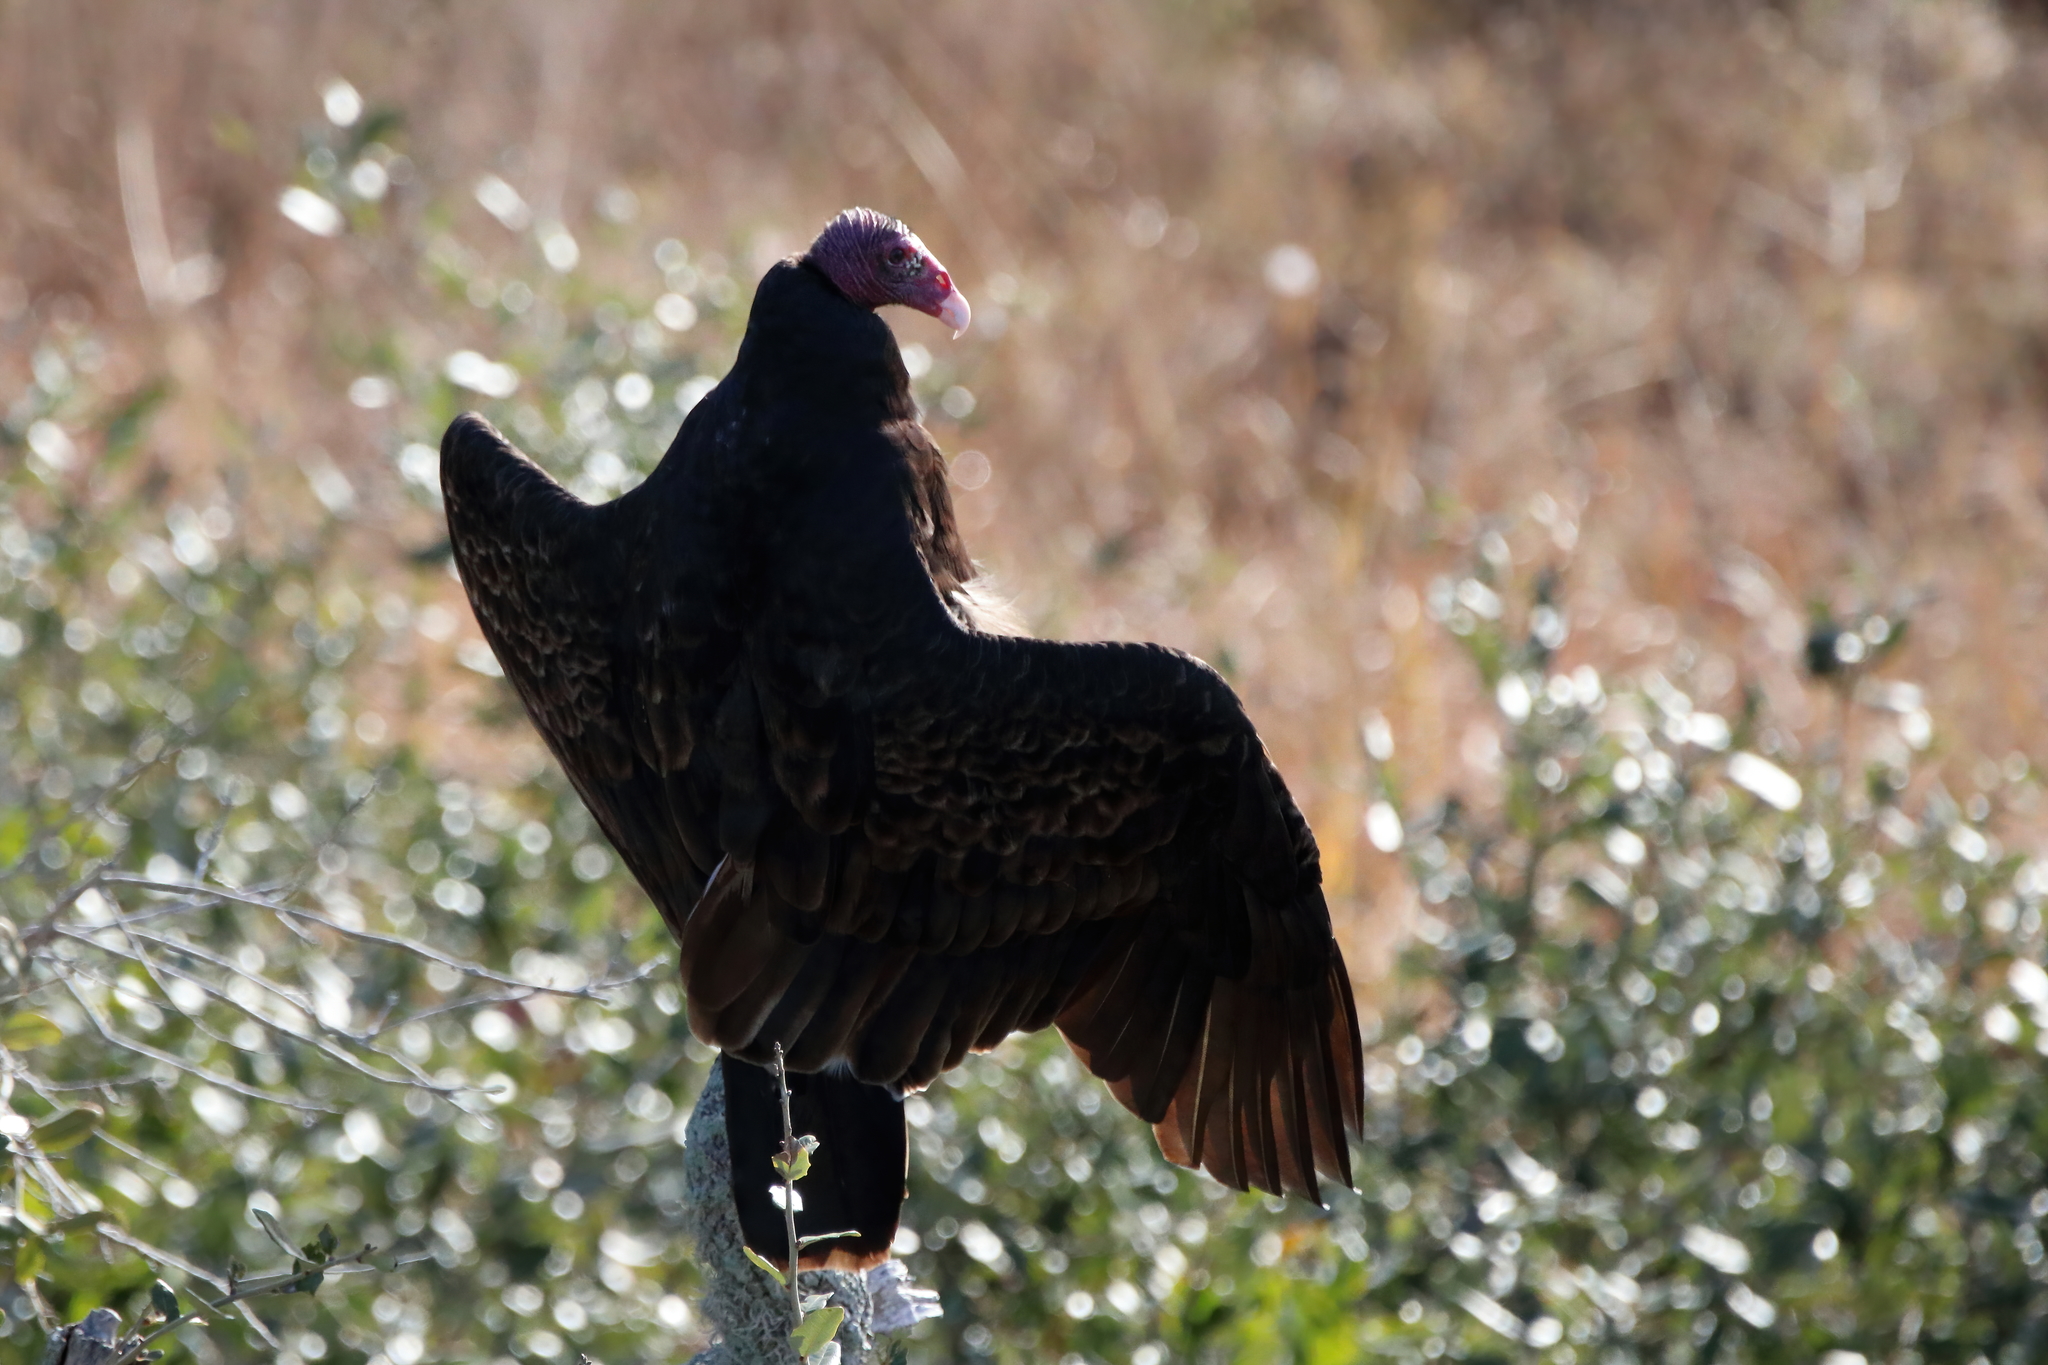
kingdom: Animalia
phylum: Chordata
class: Aves
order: Accipitriformes
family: Cathartidae
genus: Cathartes
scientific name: Cathartes aura
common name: Turkey vulture
